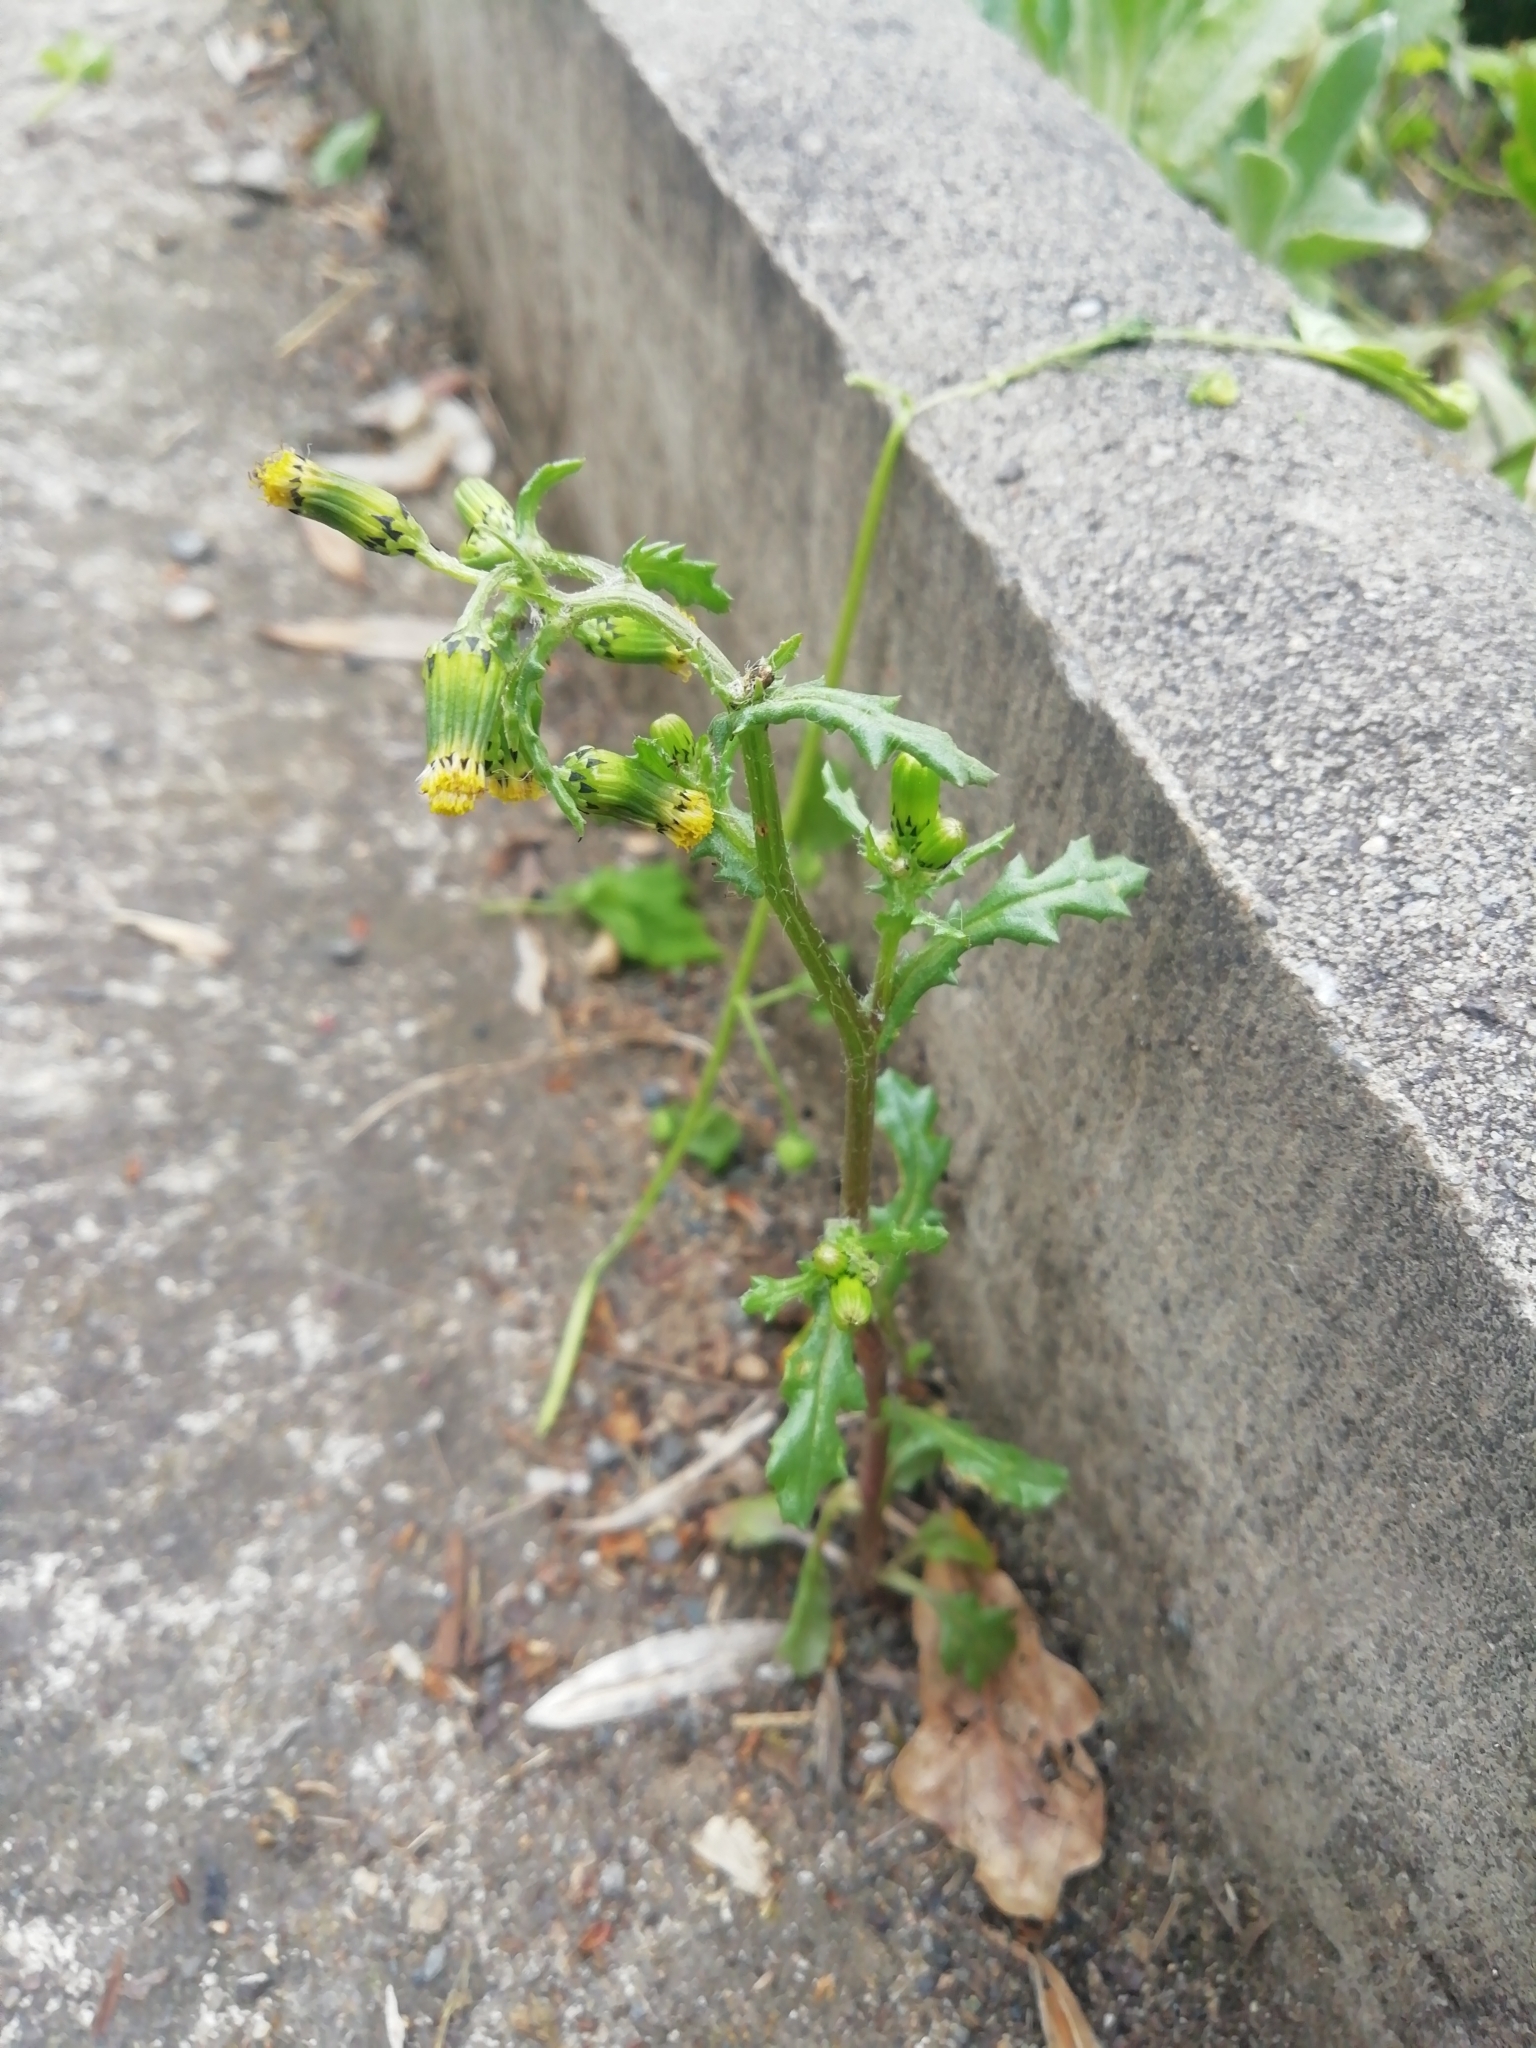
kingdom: Plantae
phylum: Tracheophyta
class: Magnoliopsida
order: Asterales
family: Asteraceae
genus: Senecio
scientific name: Senecio vulgaris
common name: Old-man-in-the-spring
